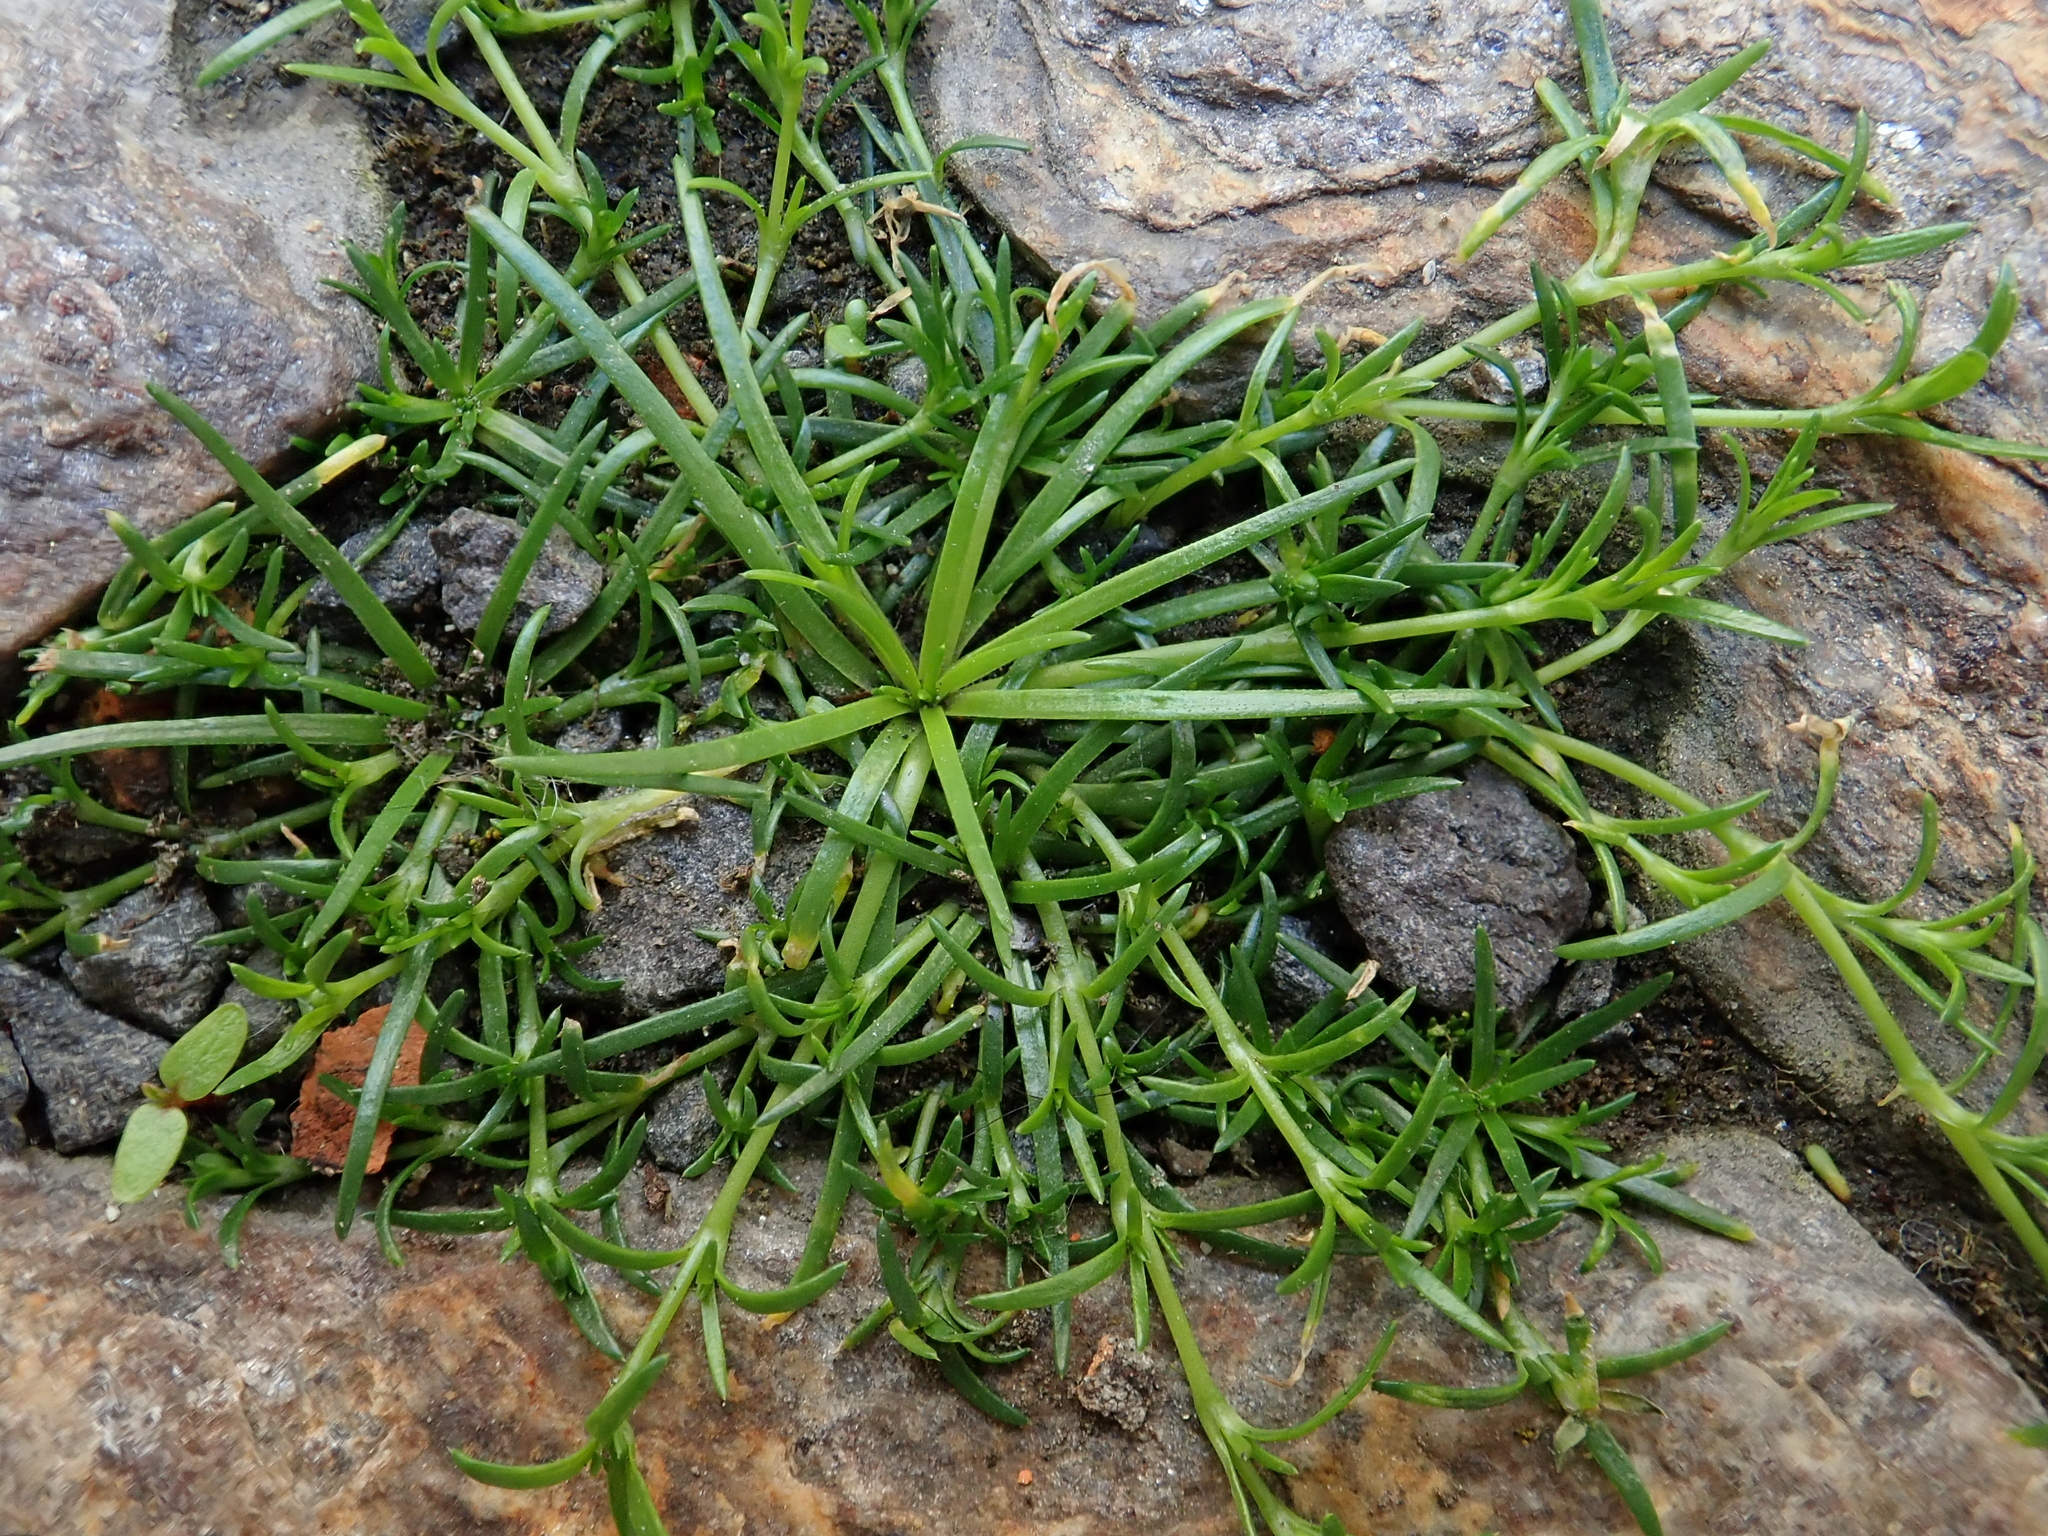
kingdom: Plantae
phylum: Tracheophyta
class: Magnoliopsida
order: Caryophyllales
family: Caryophyllaceae
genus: Sagina
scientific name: Sagina procumbens
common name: Procumbent pearlwort
